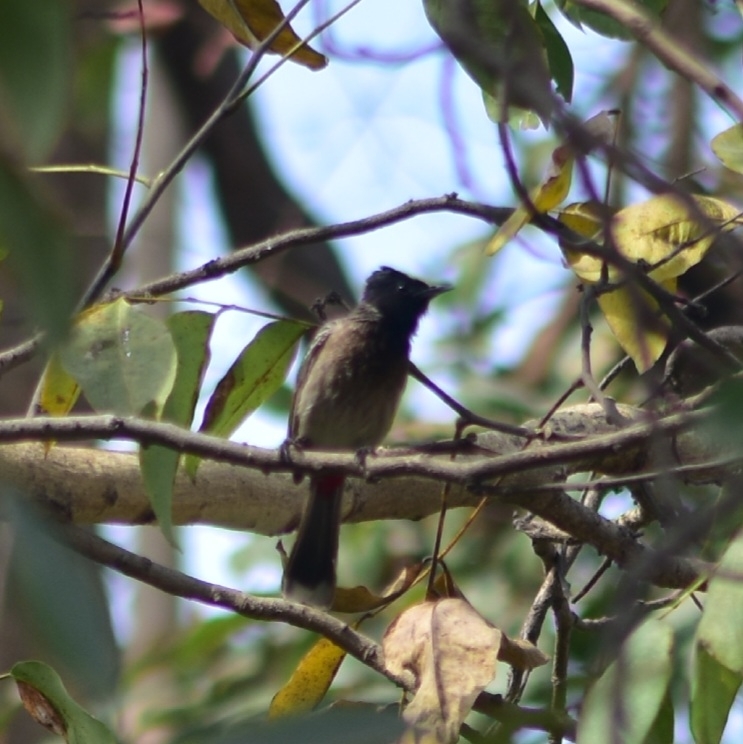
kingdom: Animalia
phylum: Chordata
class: Aves
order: Passeriformes
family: Pycnonotidae
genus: Pycnonotus
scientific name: Pycnonotus cafer
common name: Red-vented bulbul
